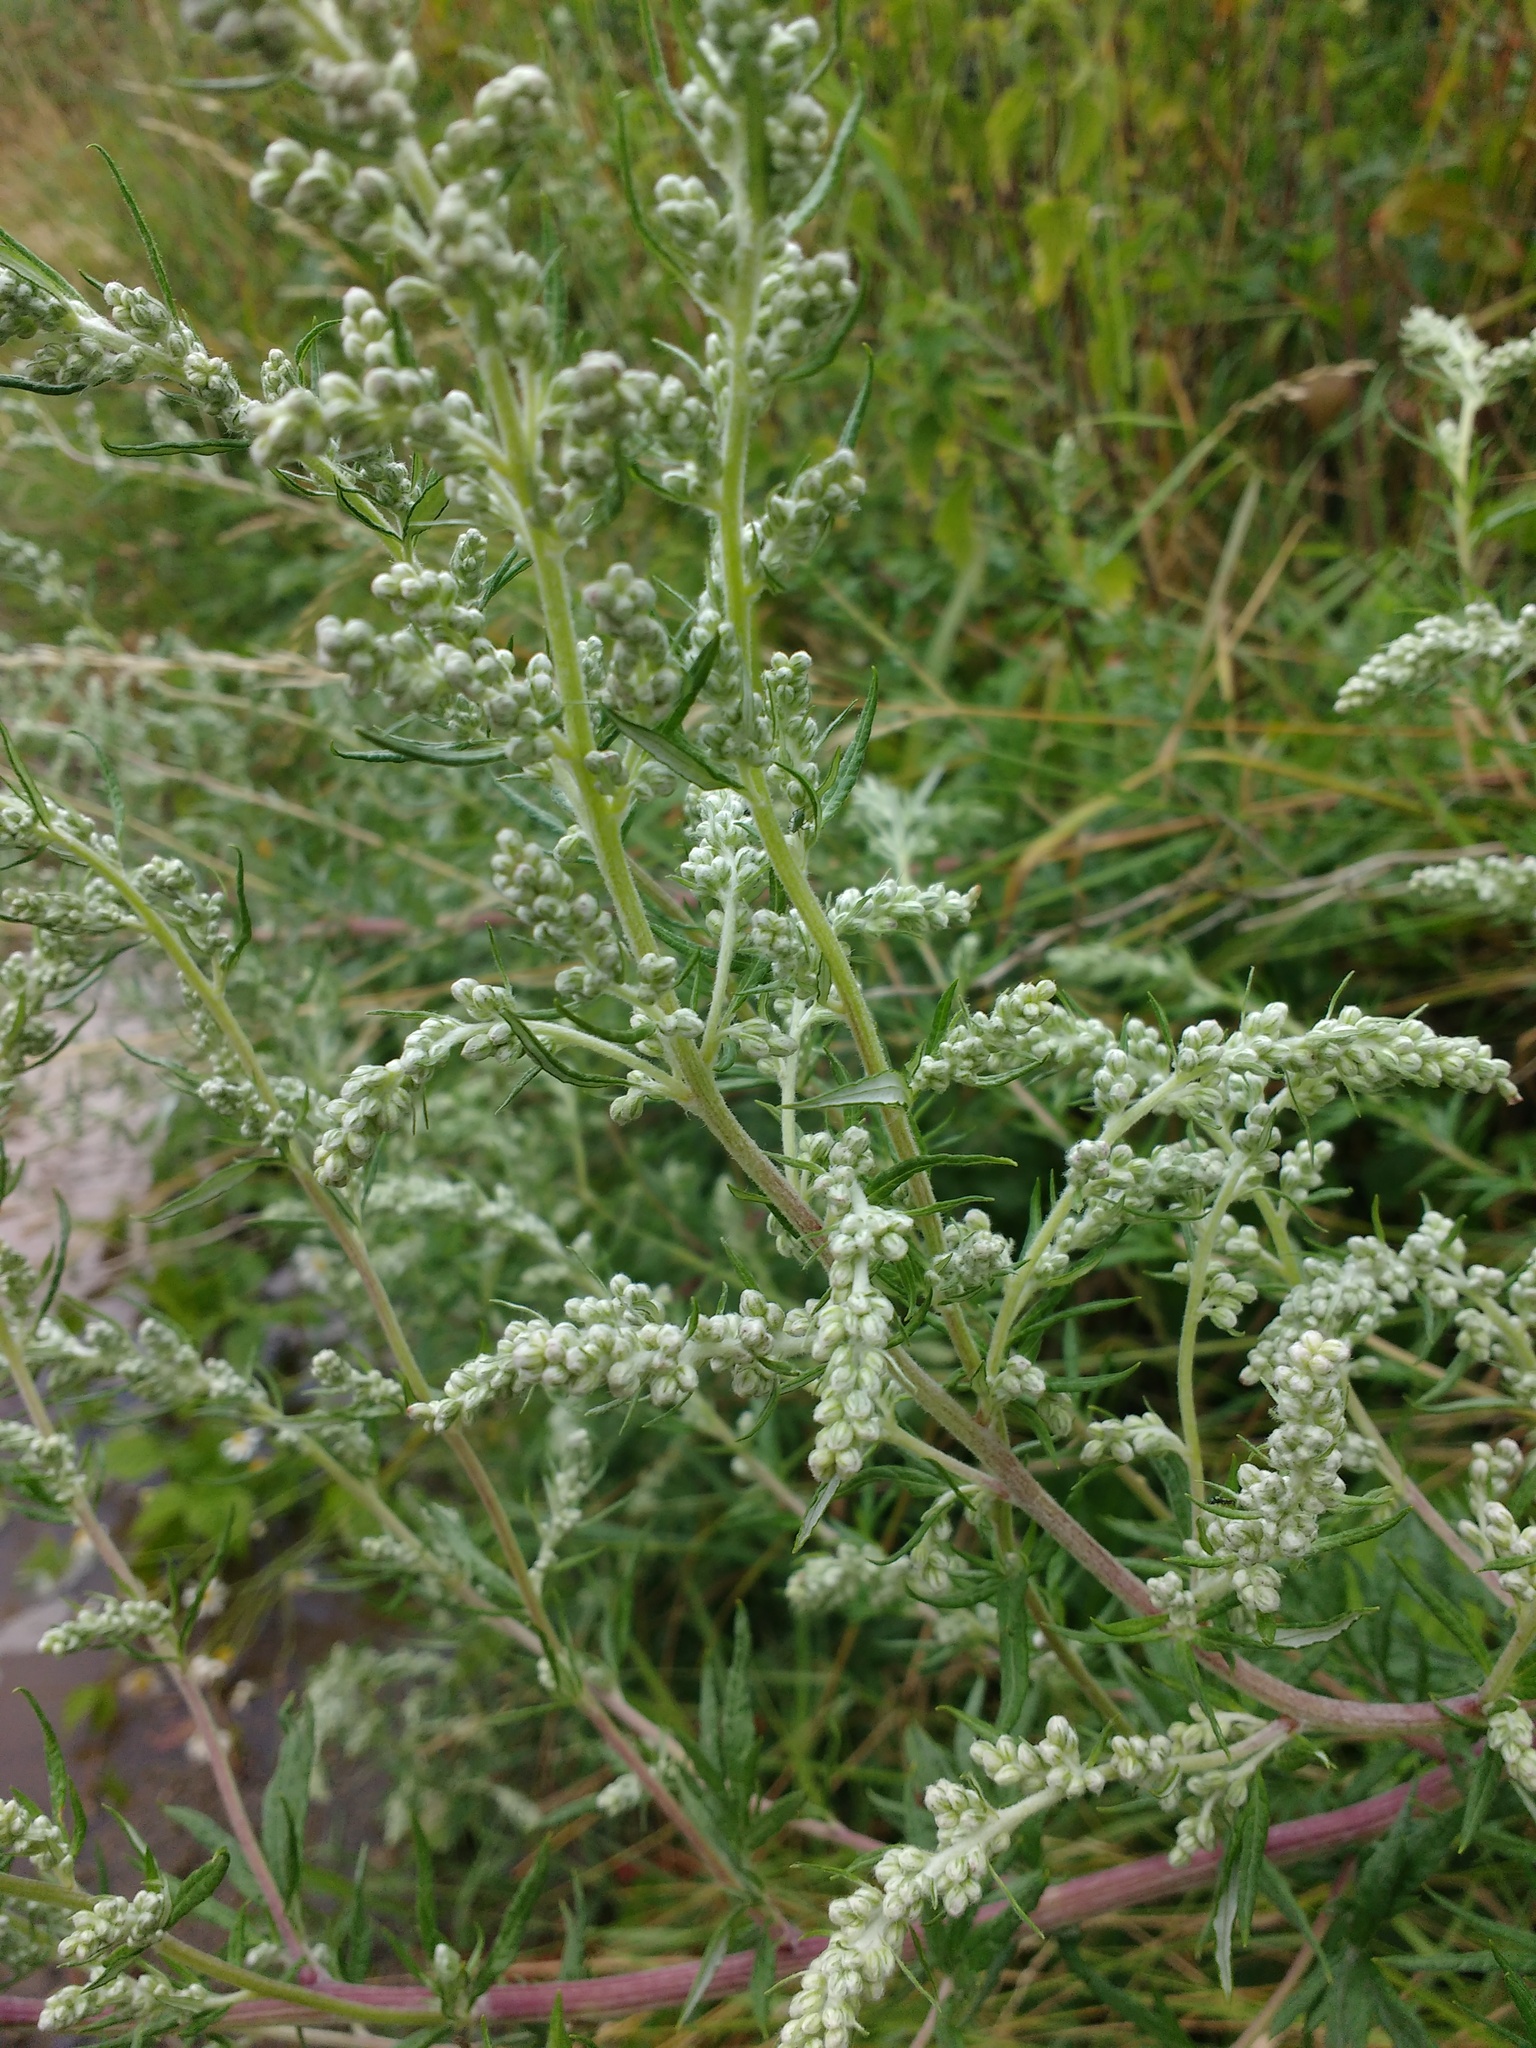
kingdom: Plantae
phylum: Tracheophyta
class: Magnoliopsida
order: Asterales
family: Asteraceae
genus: Artemisia
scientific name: Artemisia vulgaris
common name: Mugwort
